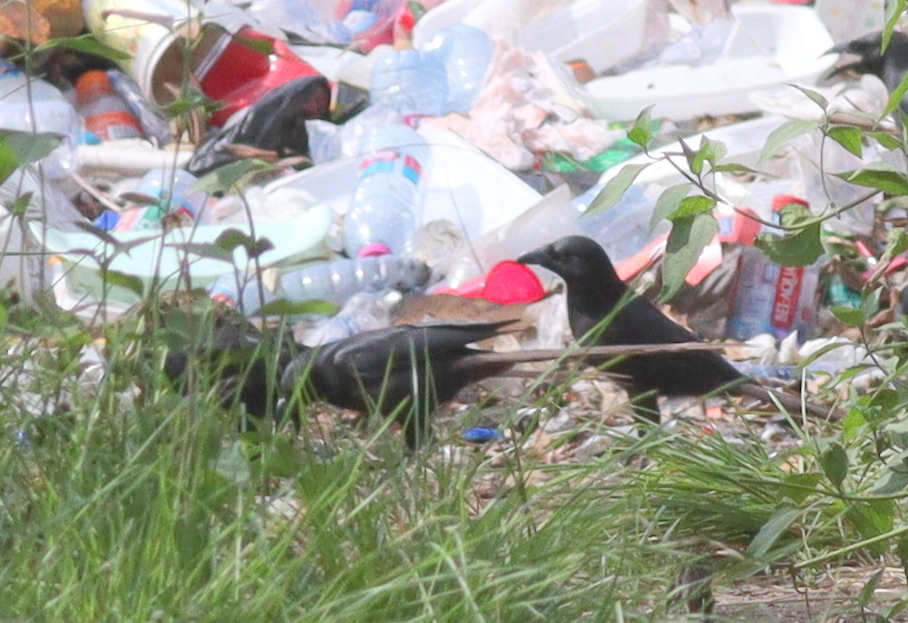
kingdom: Animalia
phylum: Chordata
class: Aves
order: Passeriformes
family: Corvidae
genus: Ptilostomus
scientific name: Ptilostomus afer
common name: Piapiac
